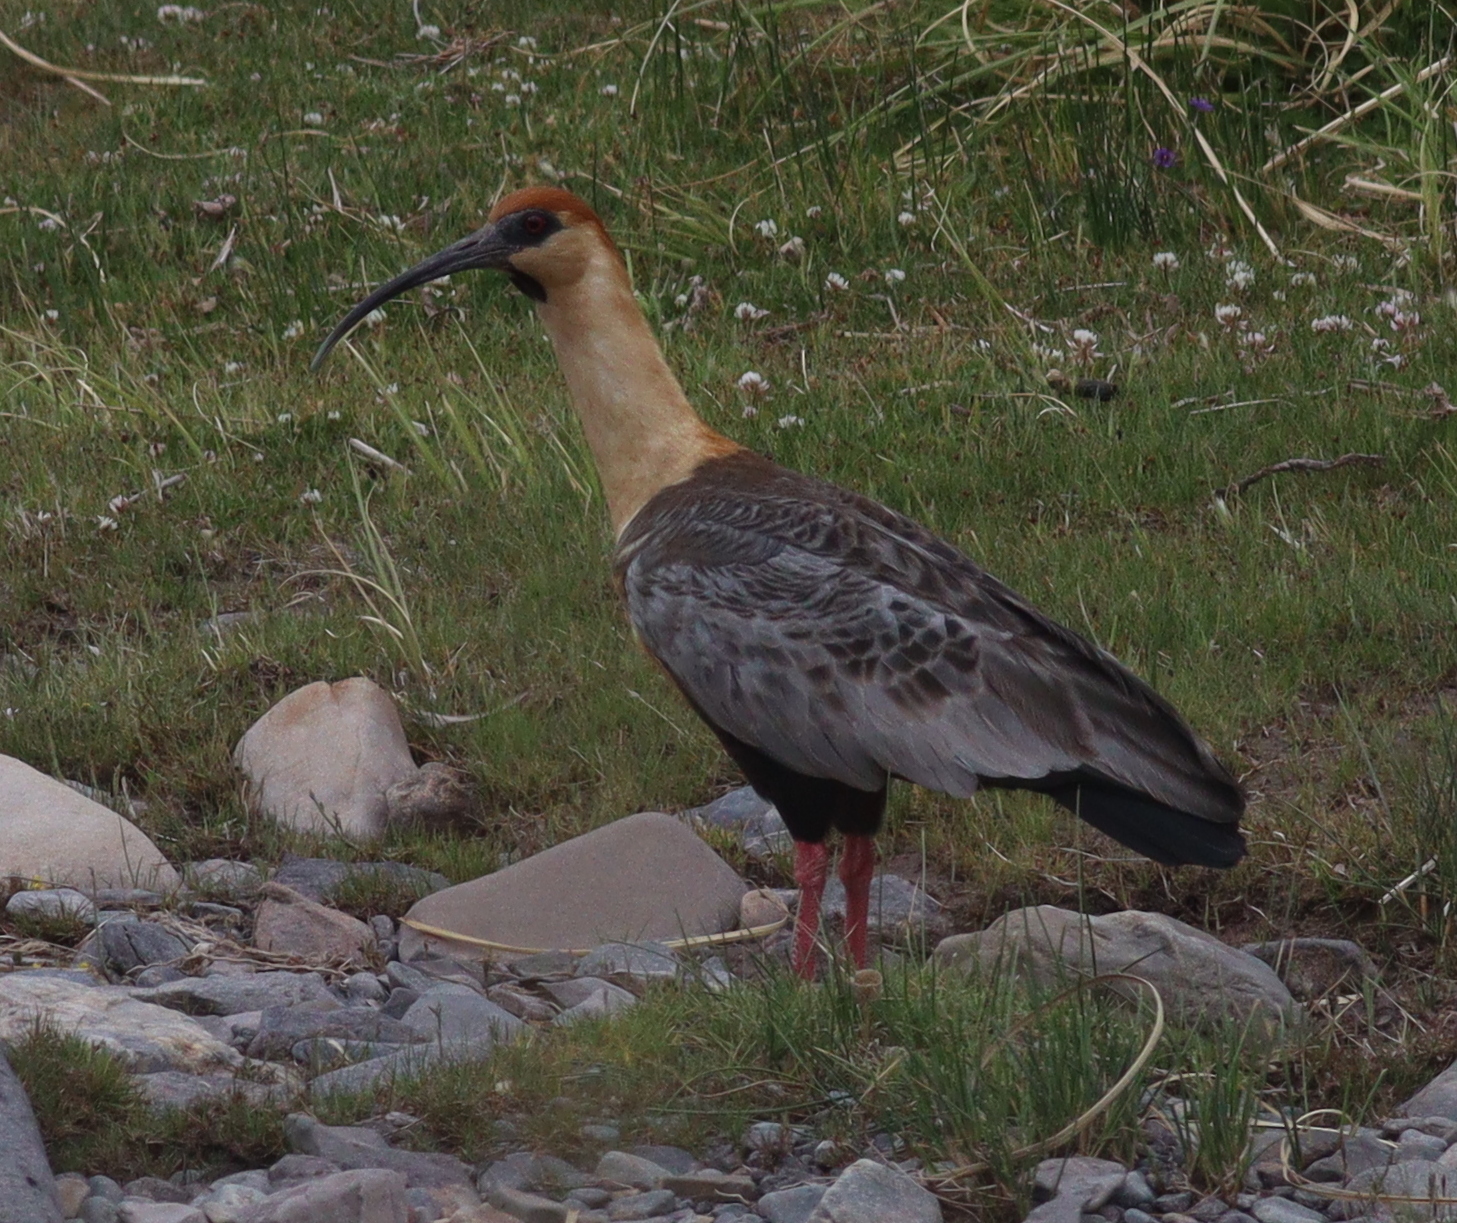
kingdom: Animalia
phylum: Chordata
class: Aves
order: Pelecaniformes
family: Threskiornithidae
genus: Theristicus
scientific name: Theristicus melanopis
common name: Black-faced ibis
